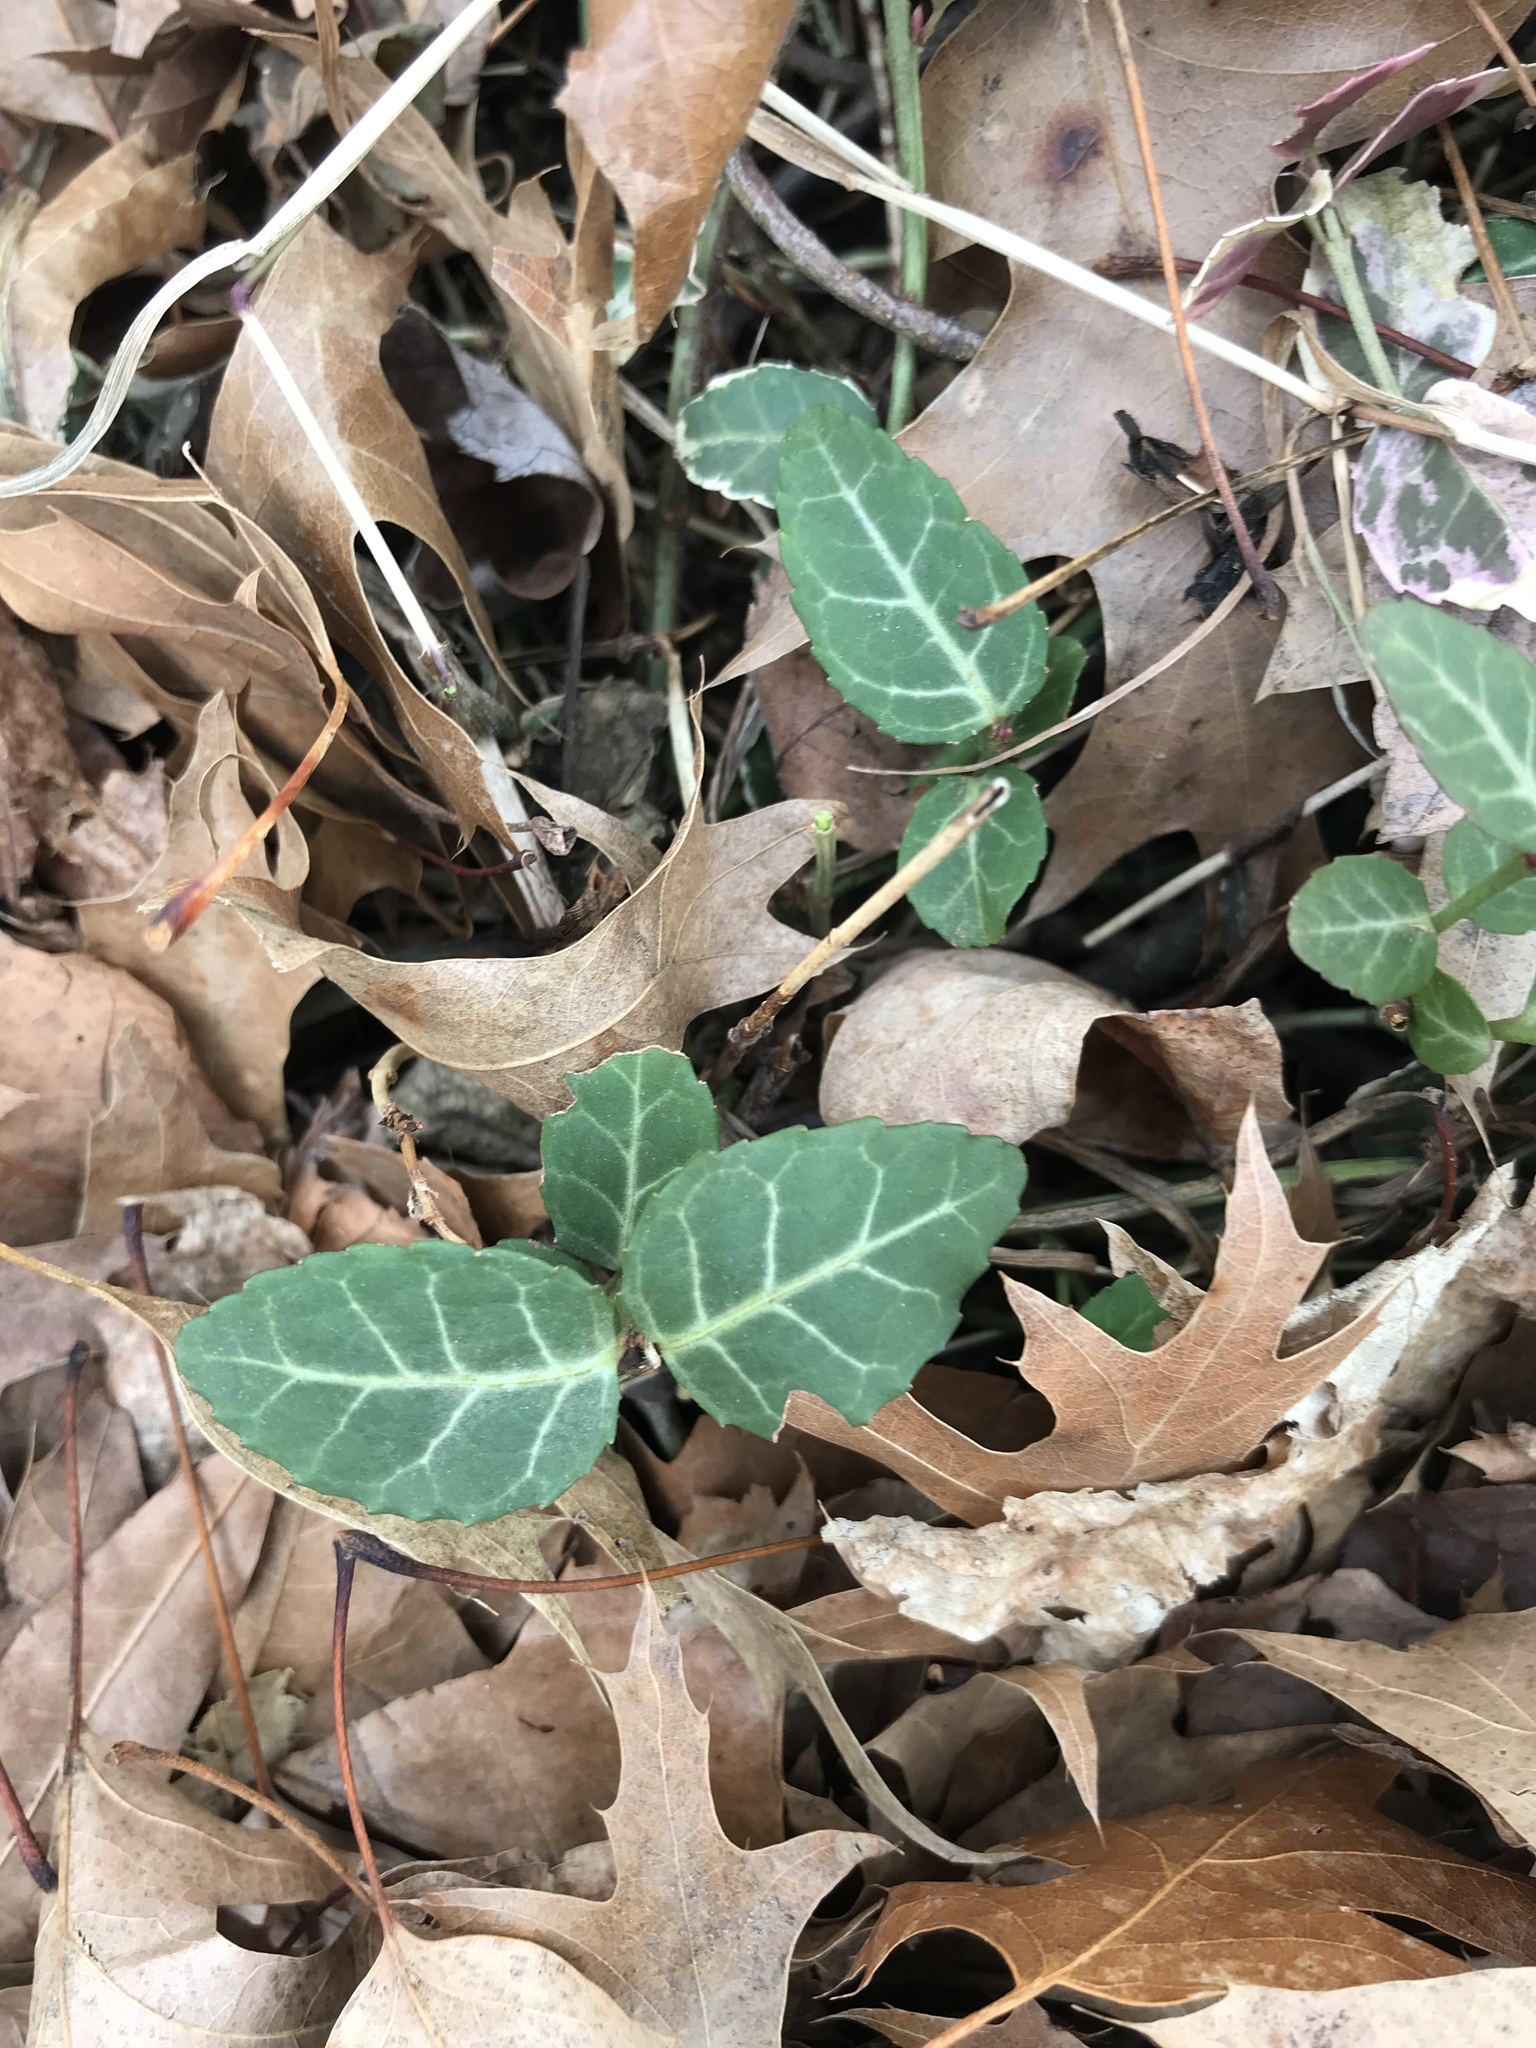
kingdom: Plantae
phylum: Tracheophyta
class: Magnoliopsida
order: Celastrales
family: Celastraceae
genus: Euonymus
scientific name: Euonymus fortunei
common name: Climbing euonymus
